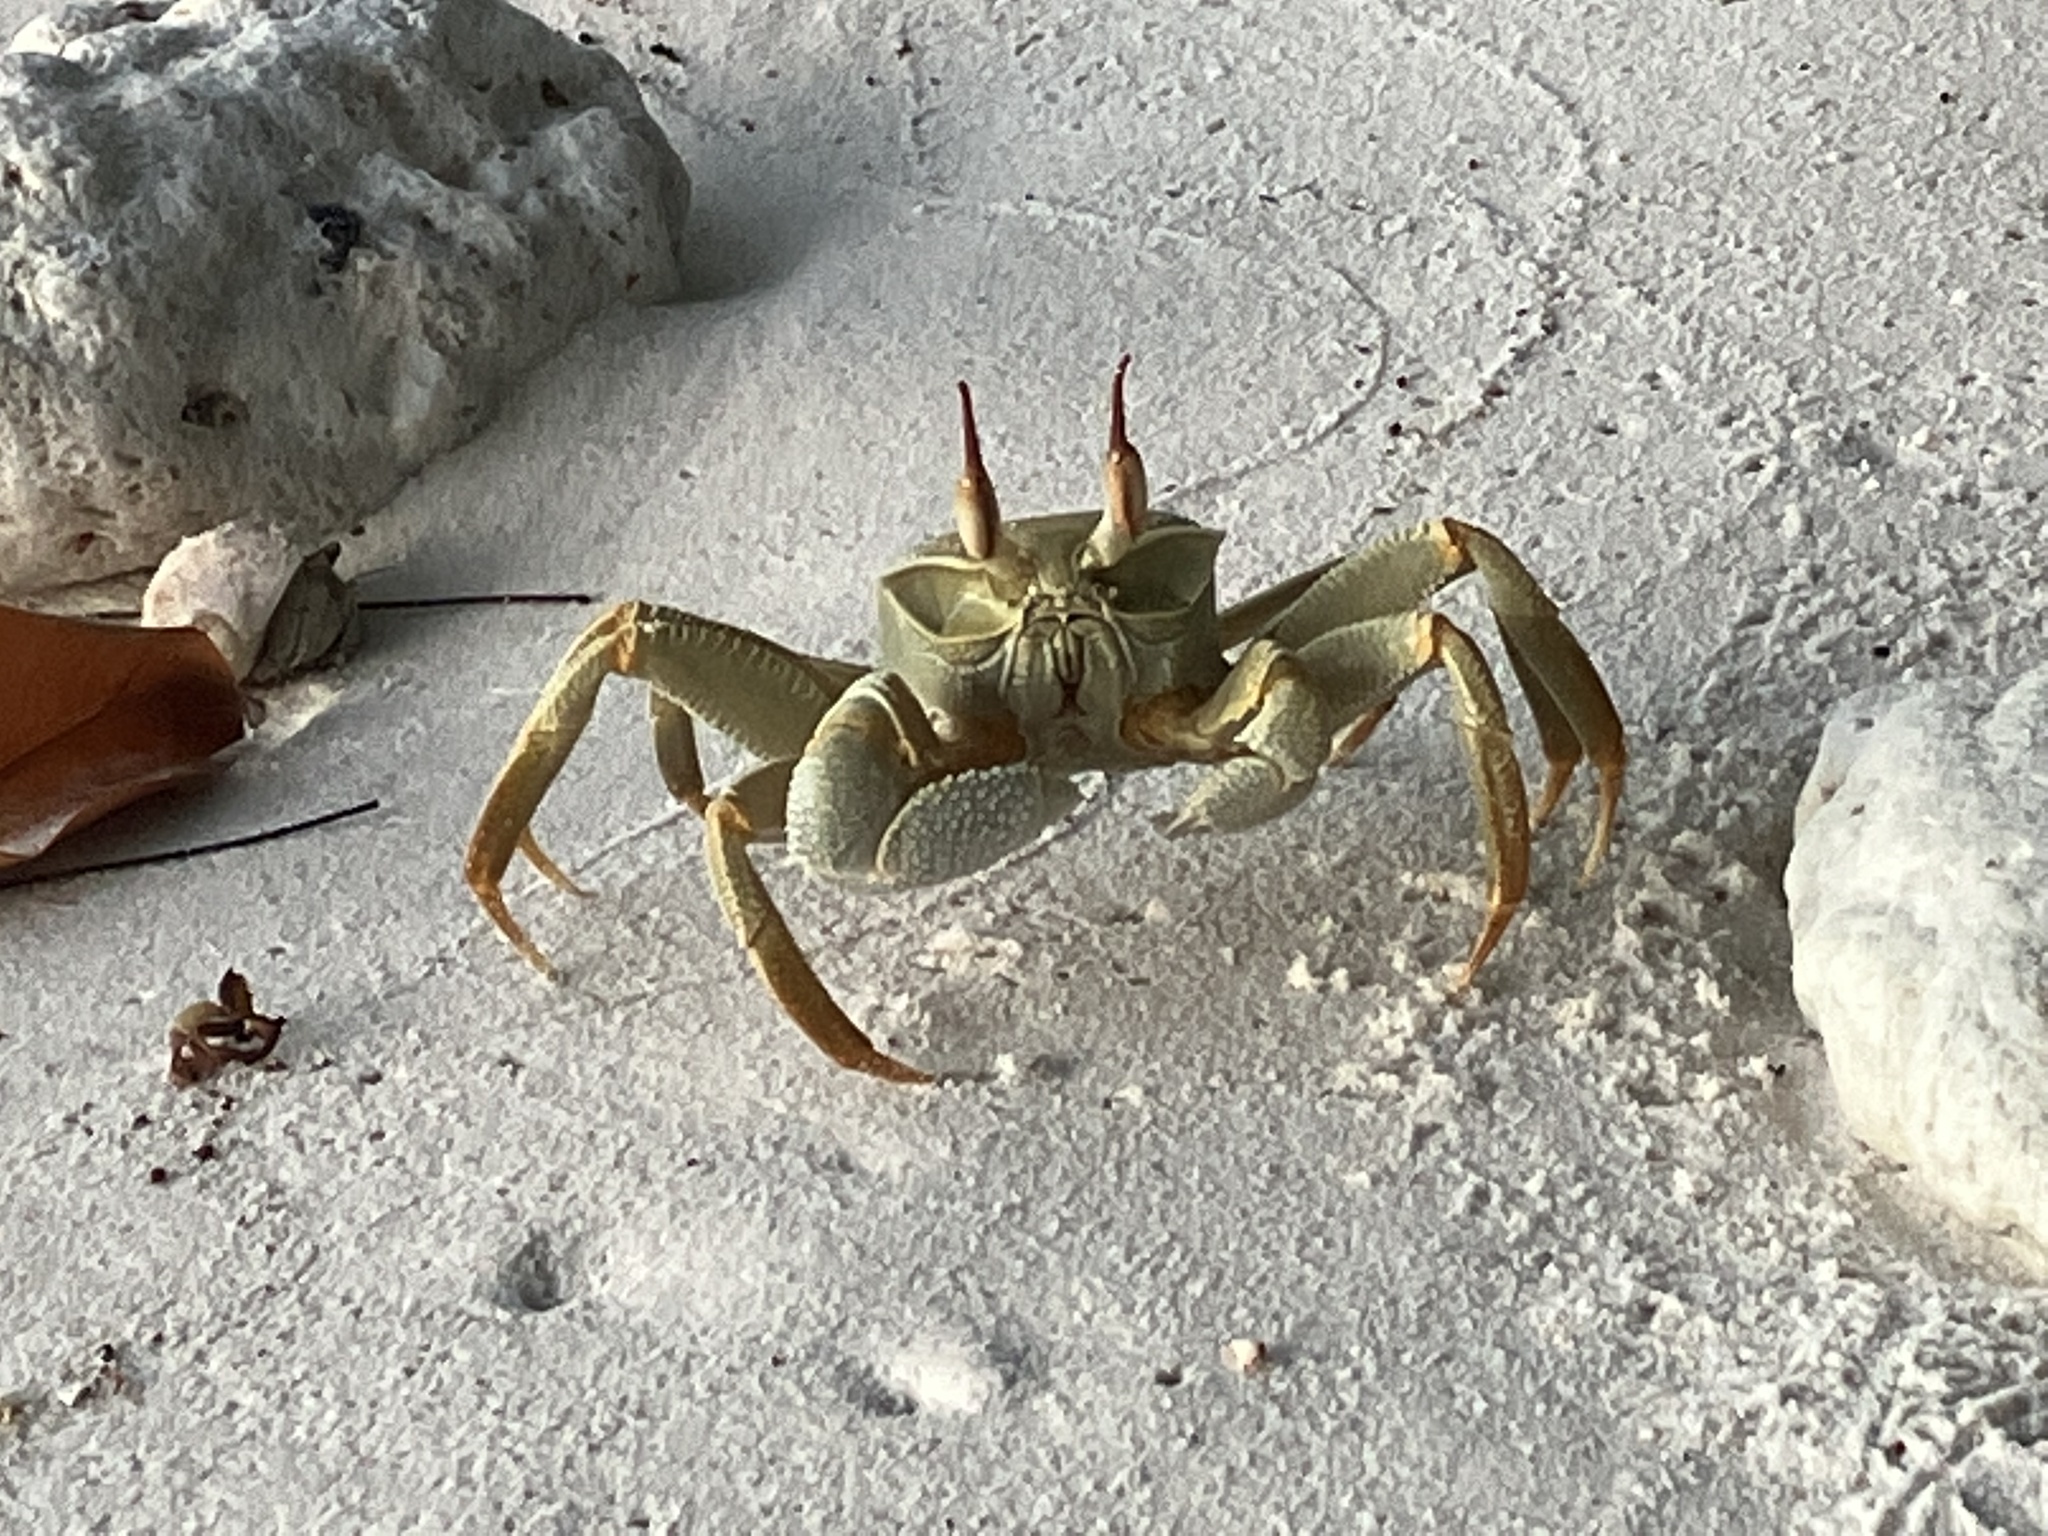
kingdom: Animalia
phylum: Arthropoda
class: Malacostraca
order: Decapoda
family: Ocypodidae
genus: Ocypode
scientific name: Ocypode ceratophthalmus
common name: Indo-pacific ghost crab
